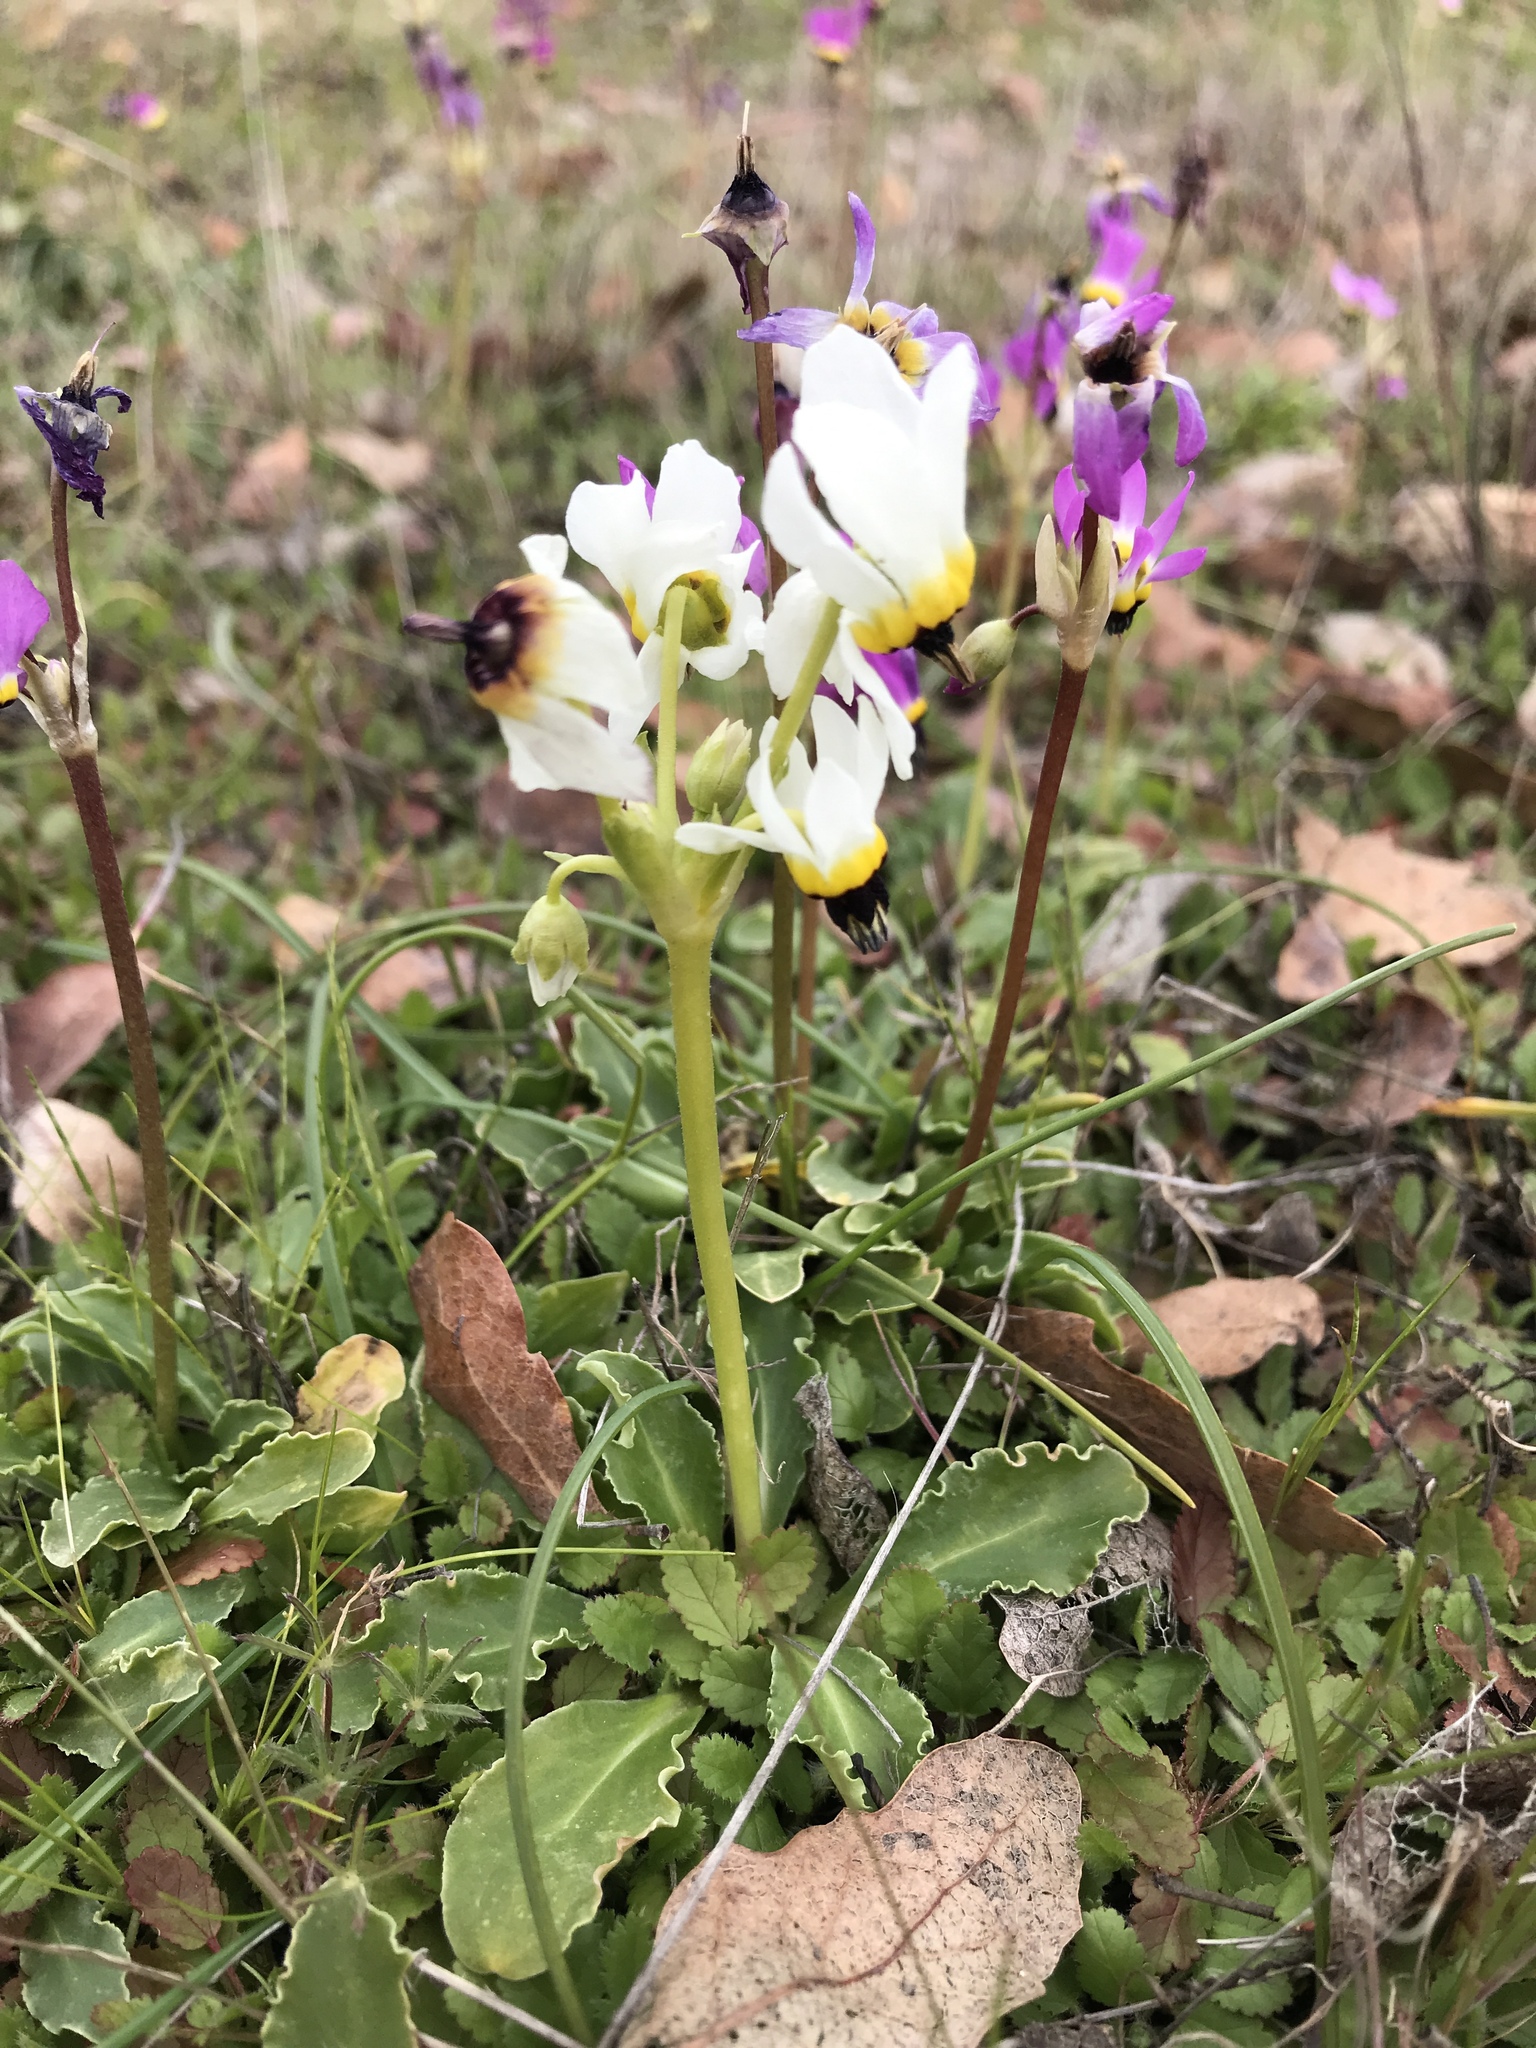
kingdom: Plantae
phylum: Tracheophyta
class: Magnoliopsida
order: Ericales
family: Primulaceae
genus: Dodecatheon
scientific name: Dodecatheon clevelandii
